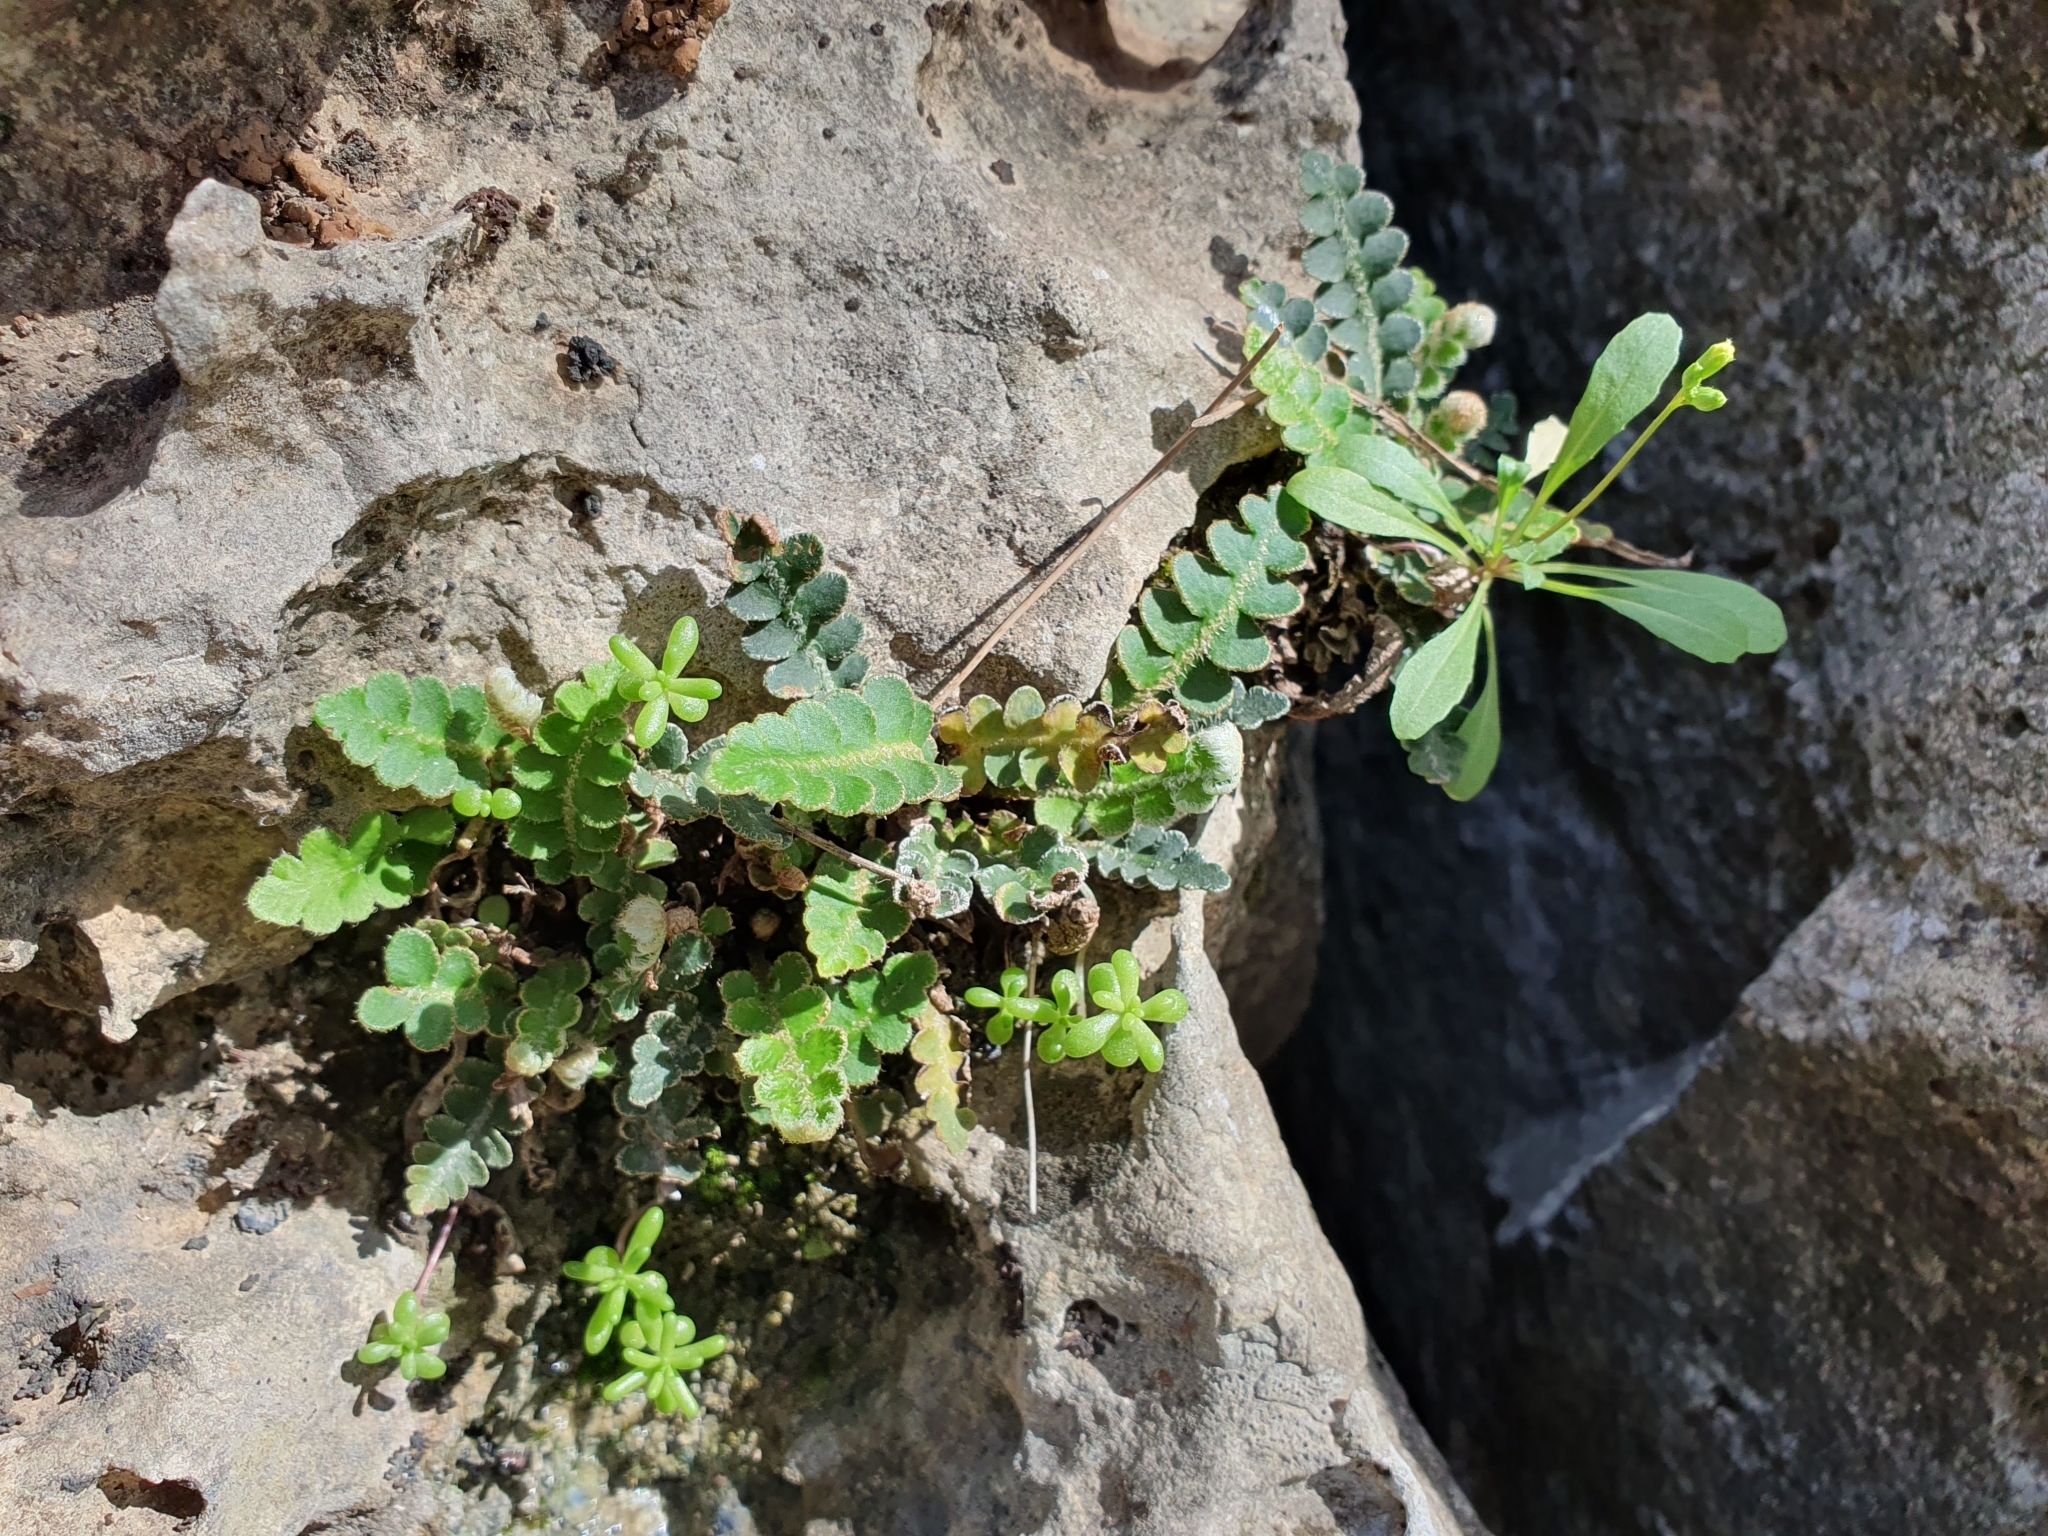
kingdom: Plantae
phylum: Tracheophyta
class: Polypodiopsida
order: Polypodiales
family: Aspleniaceae
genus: Asplenium
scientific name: Asplenium ceterach
